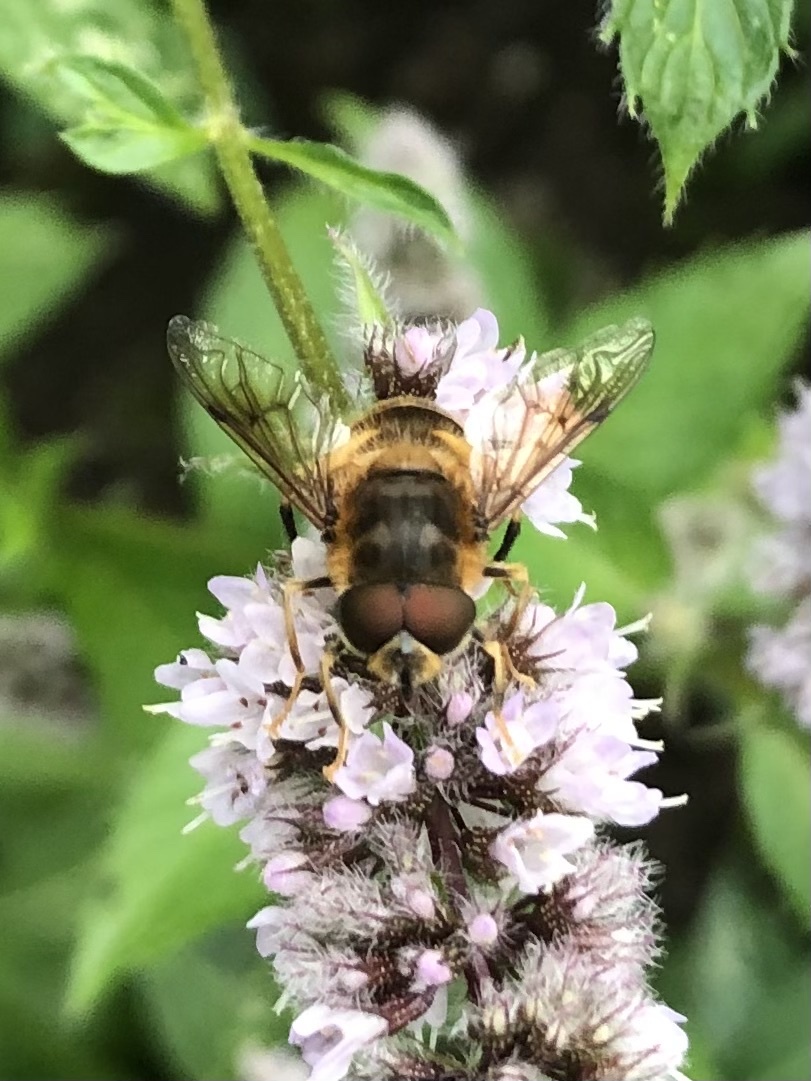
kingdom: Animalia
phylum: Arthropoda
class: Insecta
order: Diptera
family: Syrphidae
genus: Eristalis
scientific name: Eristalis pertinax
